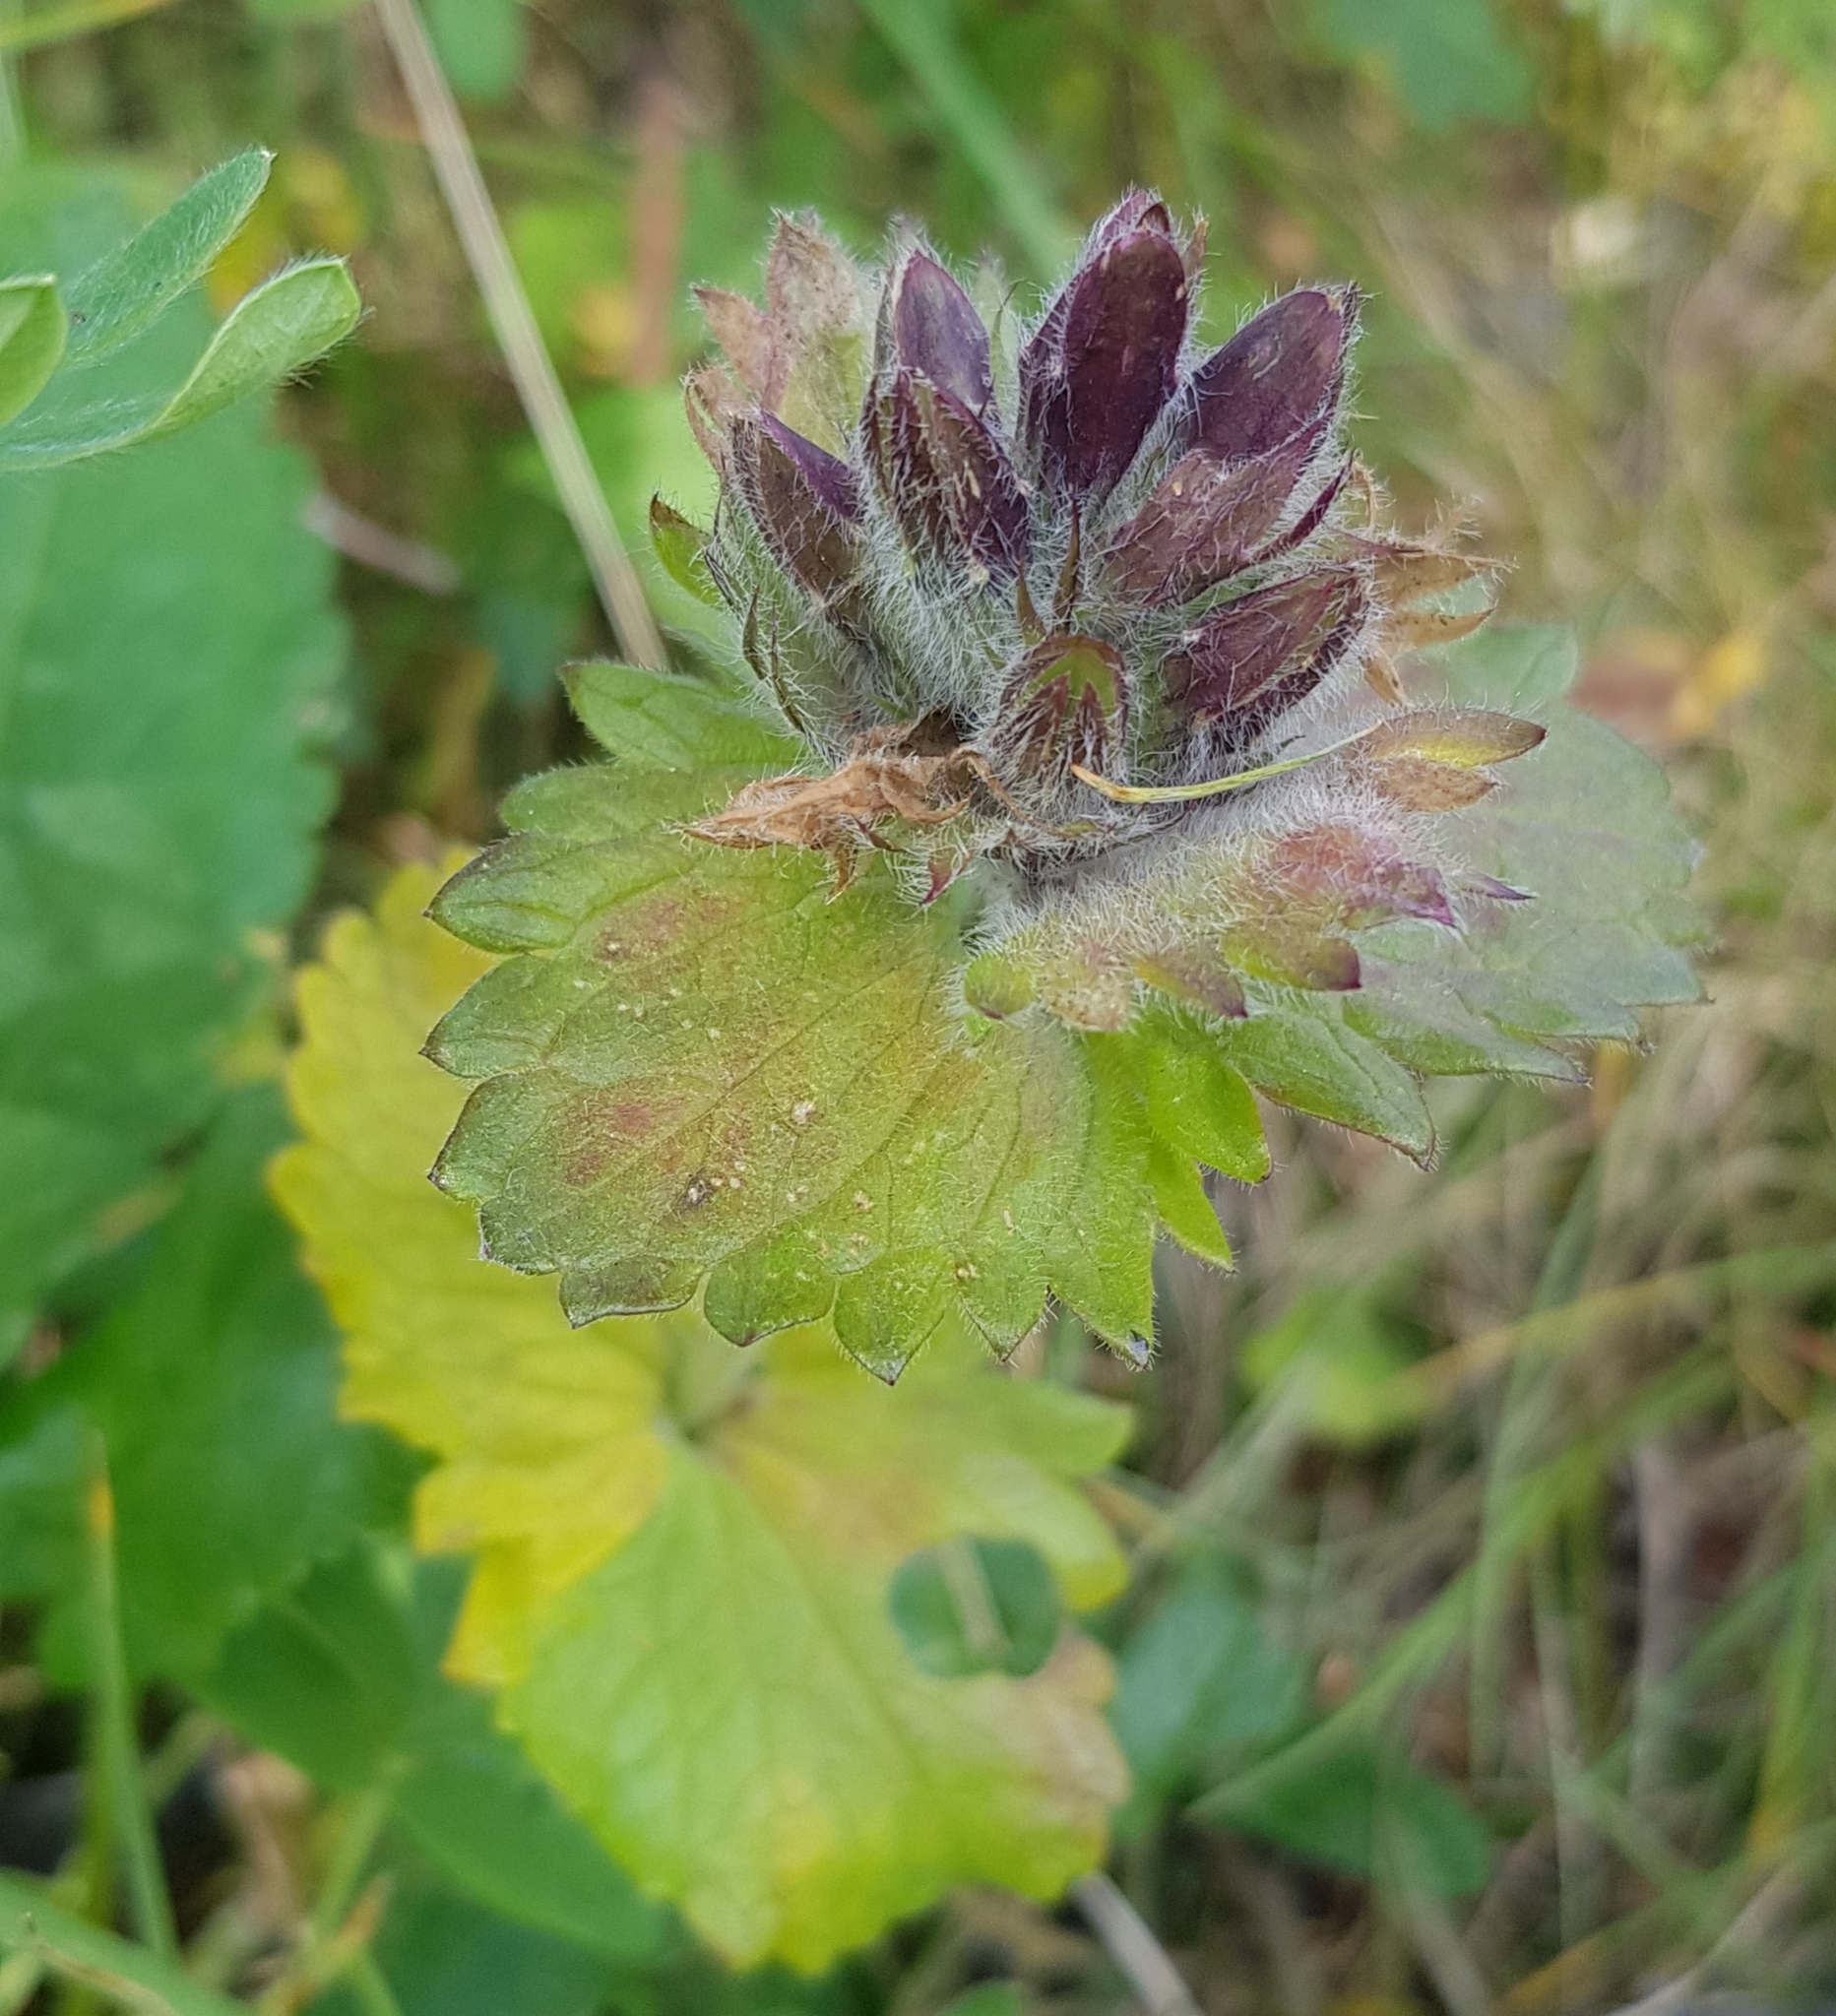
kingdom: Plantae
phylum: Tracheophyta
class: Magnoliopsida
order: Lamiales
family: Lamiaceae
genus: Dracocephalum
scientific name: Dracocephalum grandiflorum
